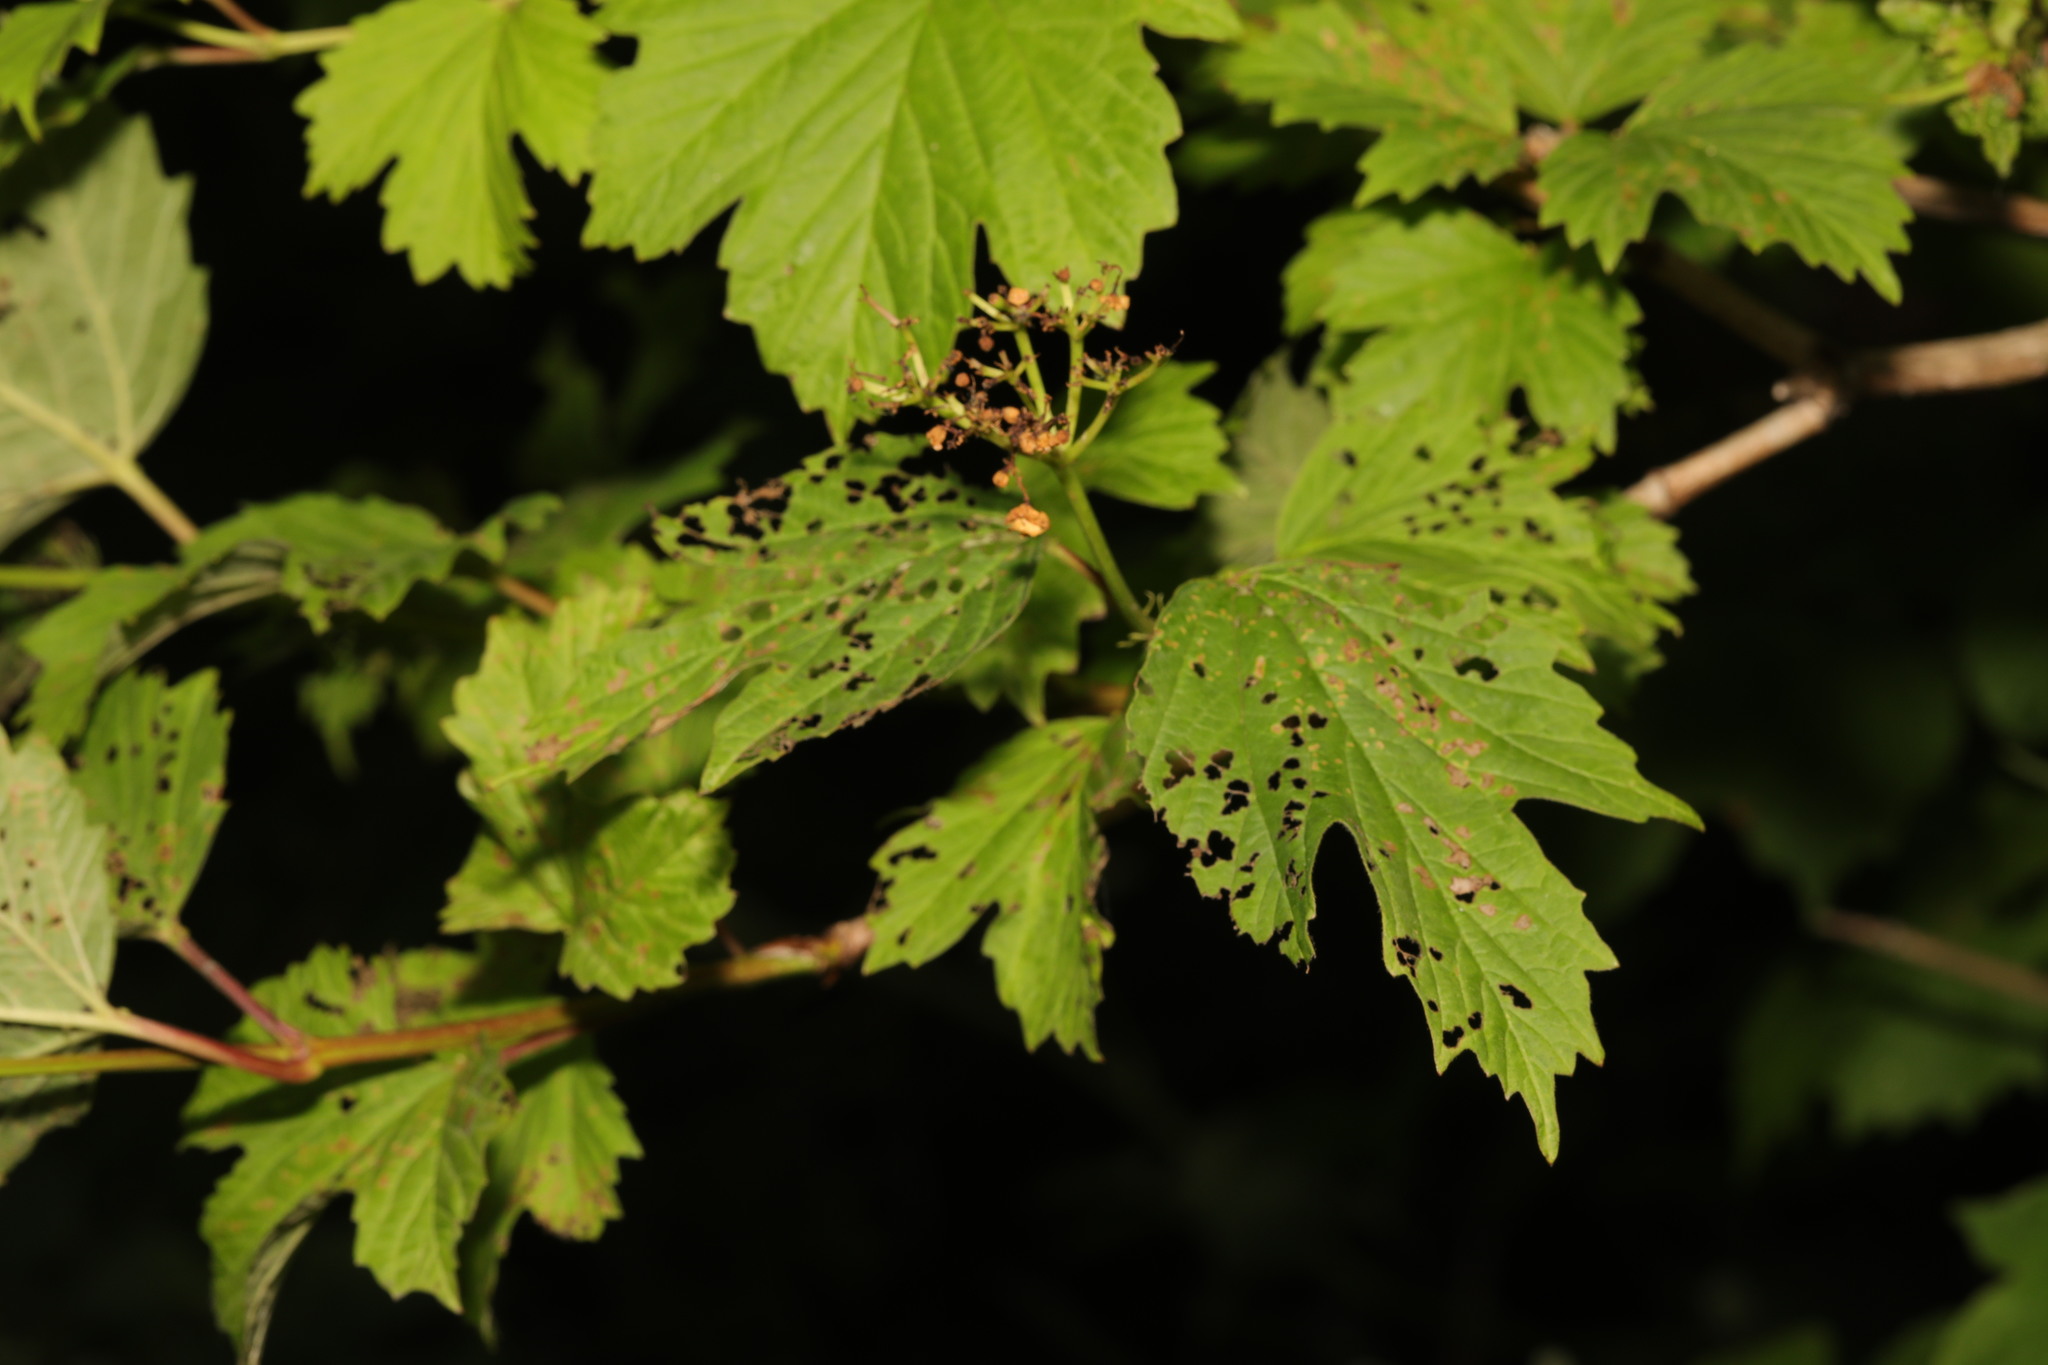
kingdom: Plantae
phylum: Tracheophyta
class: Magnoliopsida
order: Dipsacales
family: Viburnaceae
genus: Viburnum
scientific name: Viburnum opulus
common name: Guelder-rose
